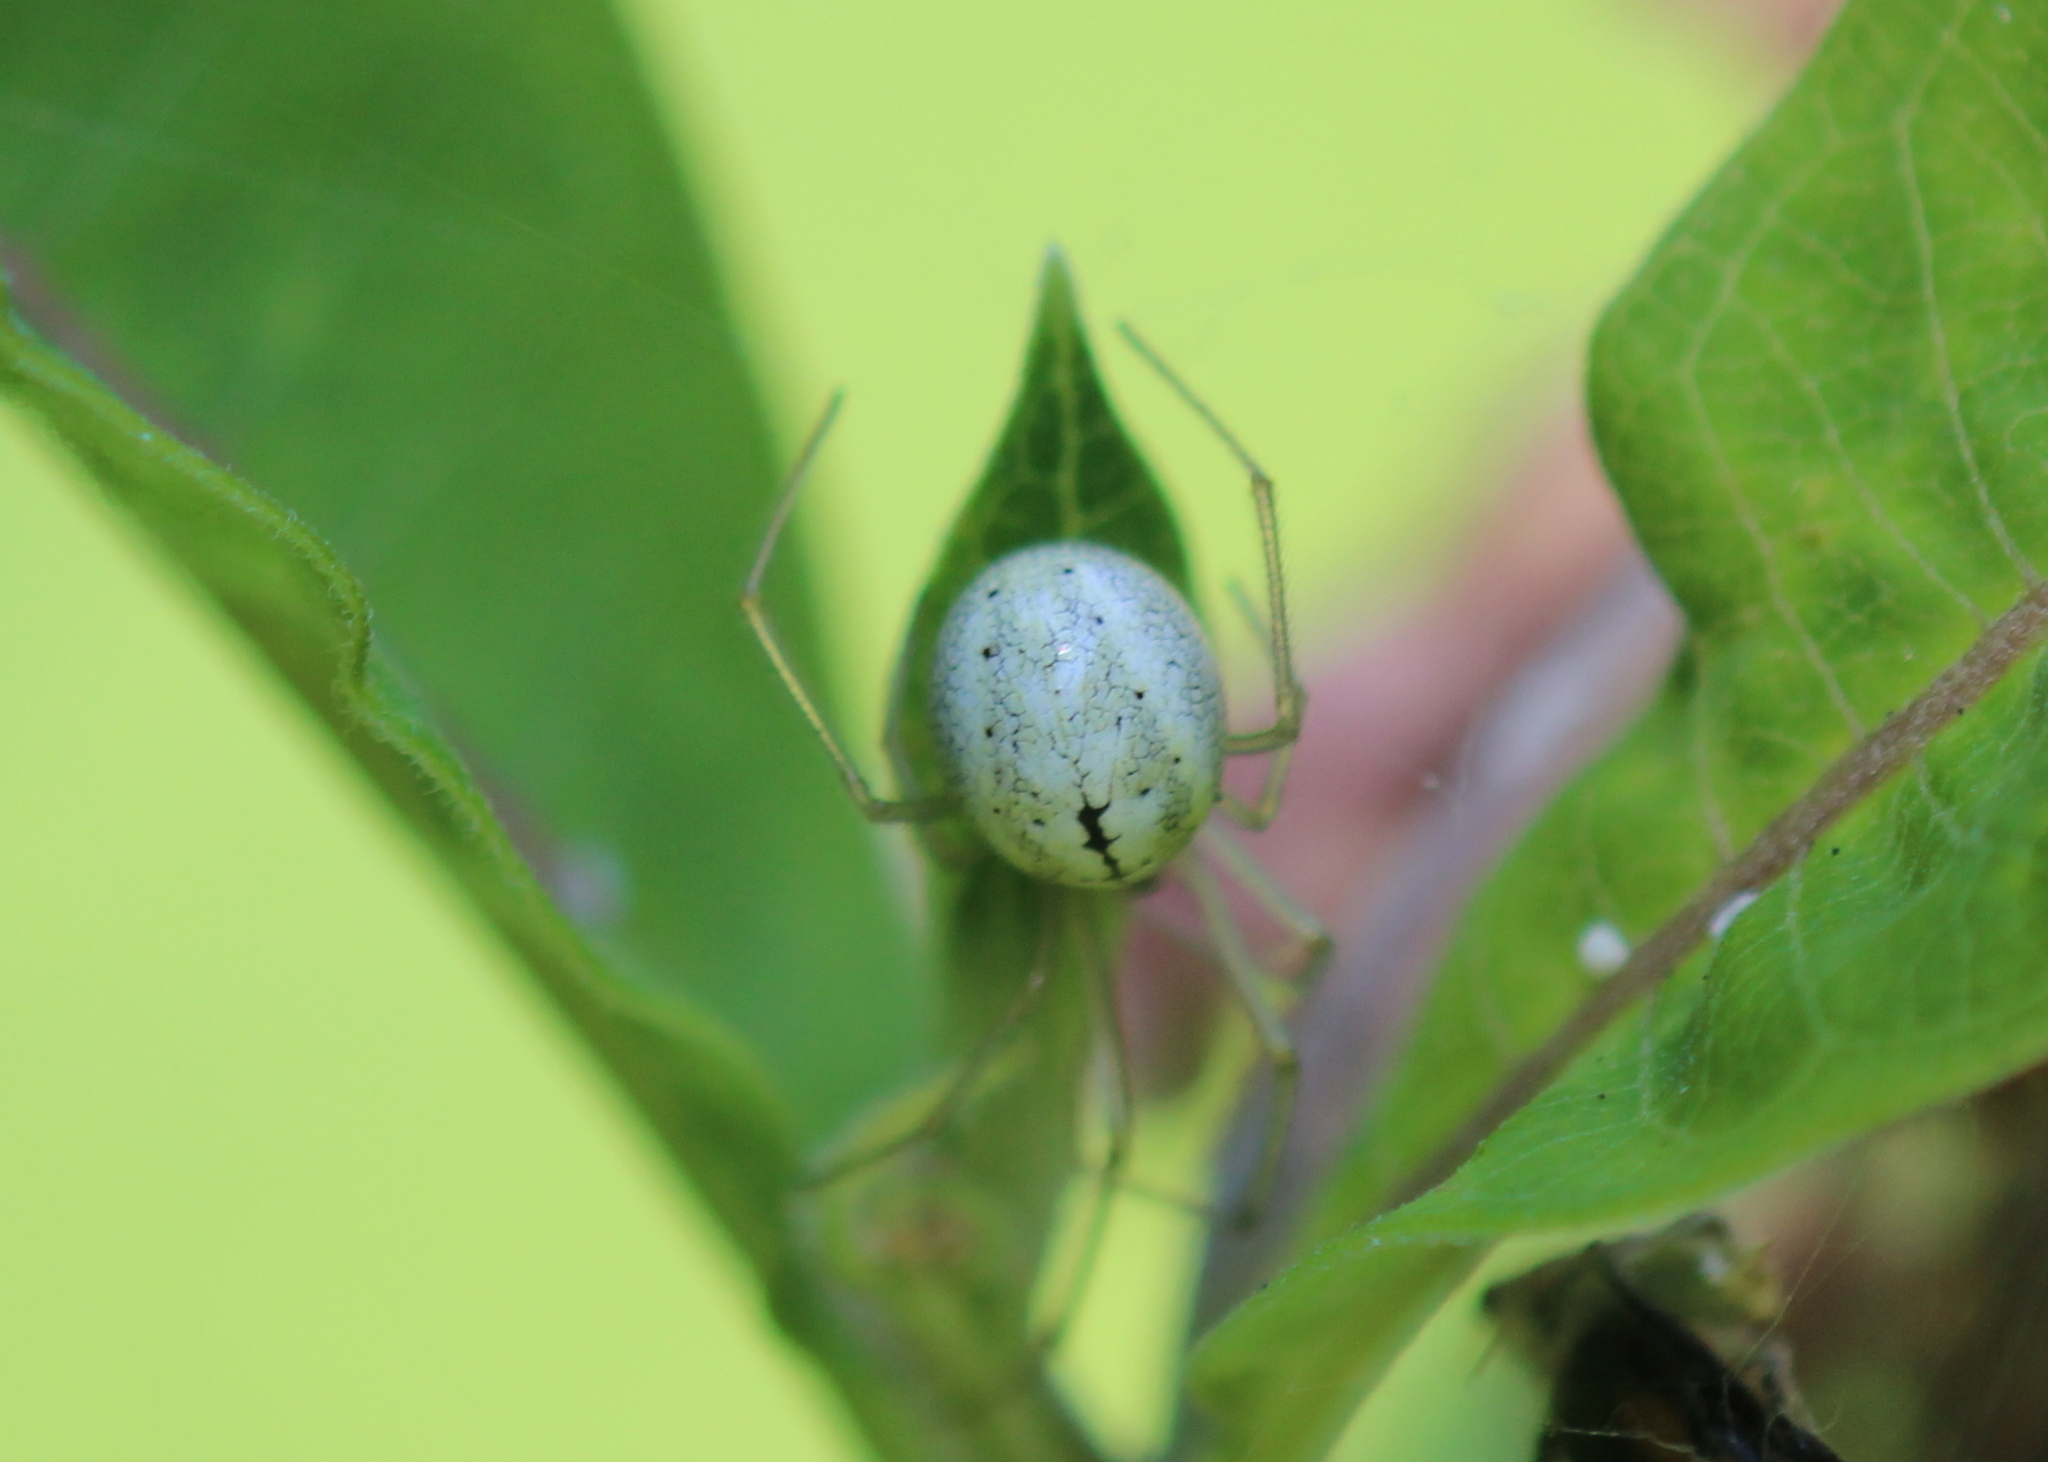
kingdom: Animalia
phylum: Arthropoda
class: Arachnida
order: Araneae
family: Theridiidae
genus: Enoplognatha
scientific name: Enoplognatha ovata
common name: Common candy-striped spider
